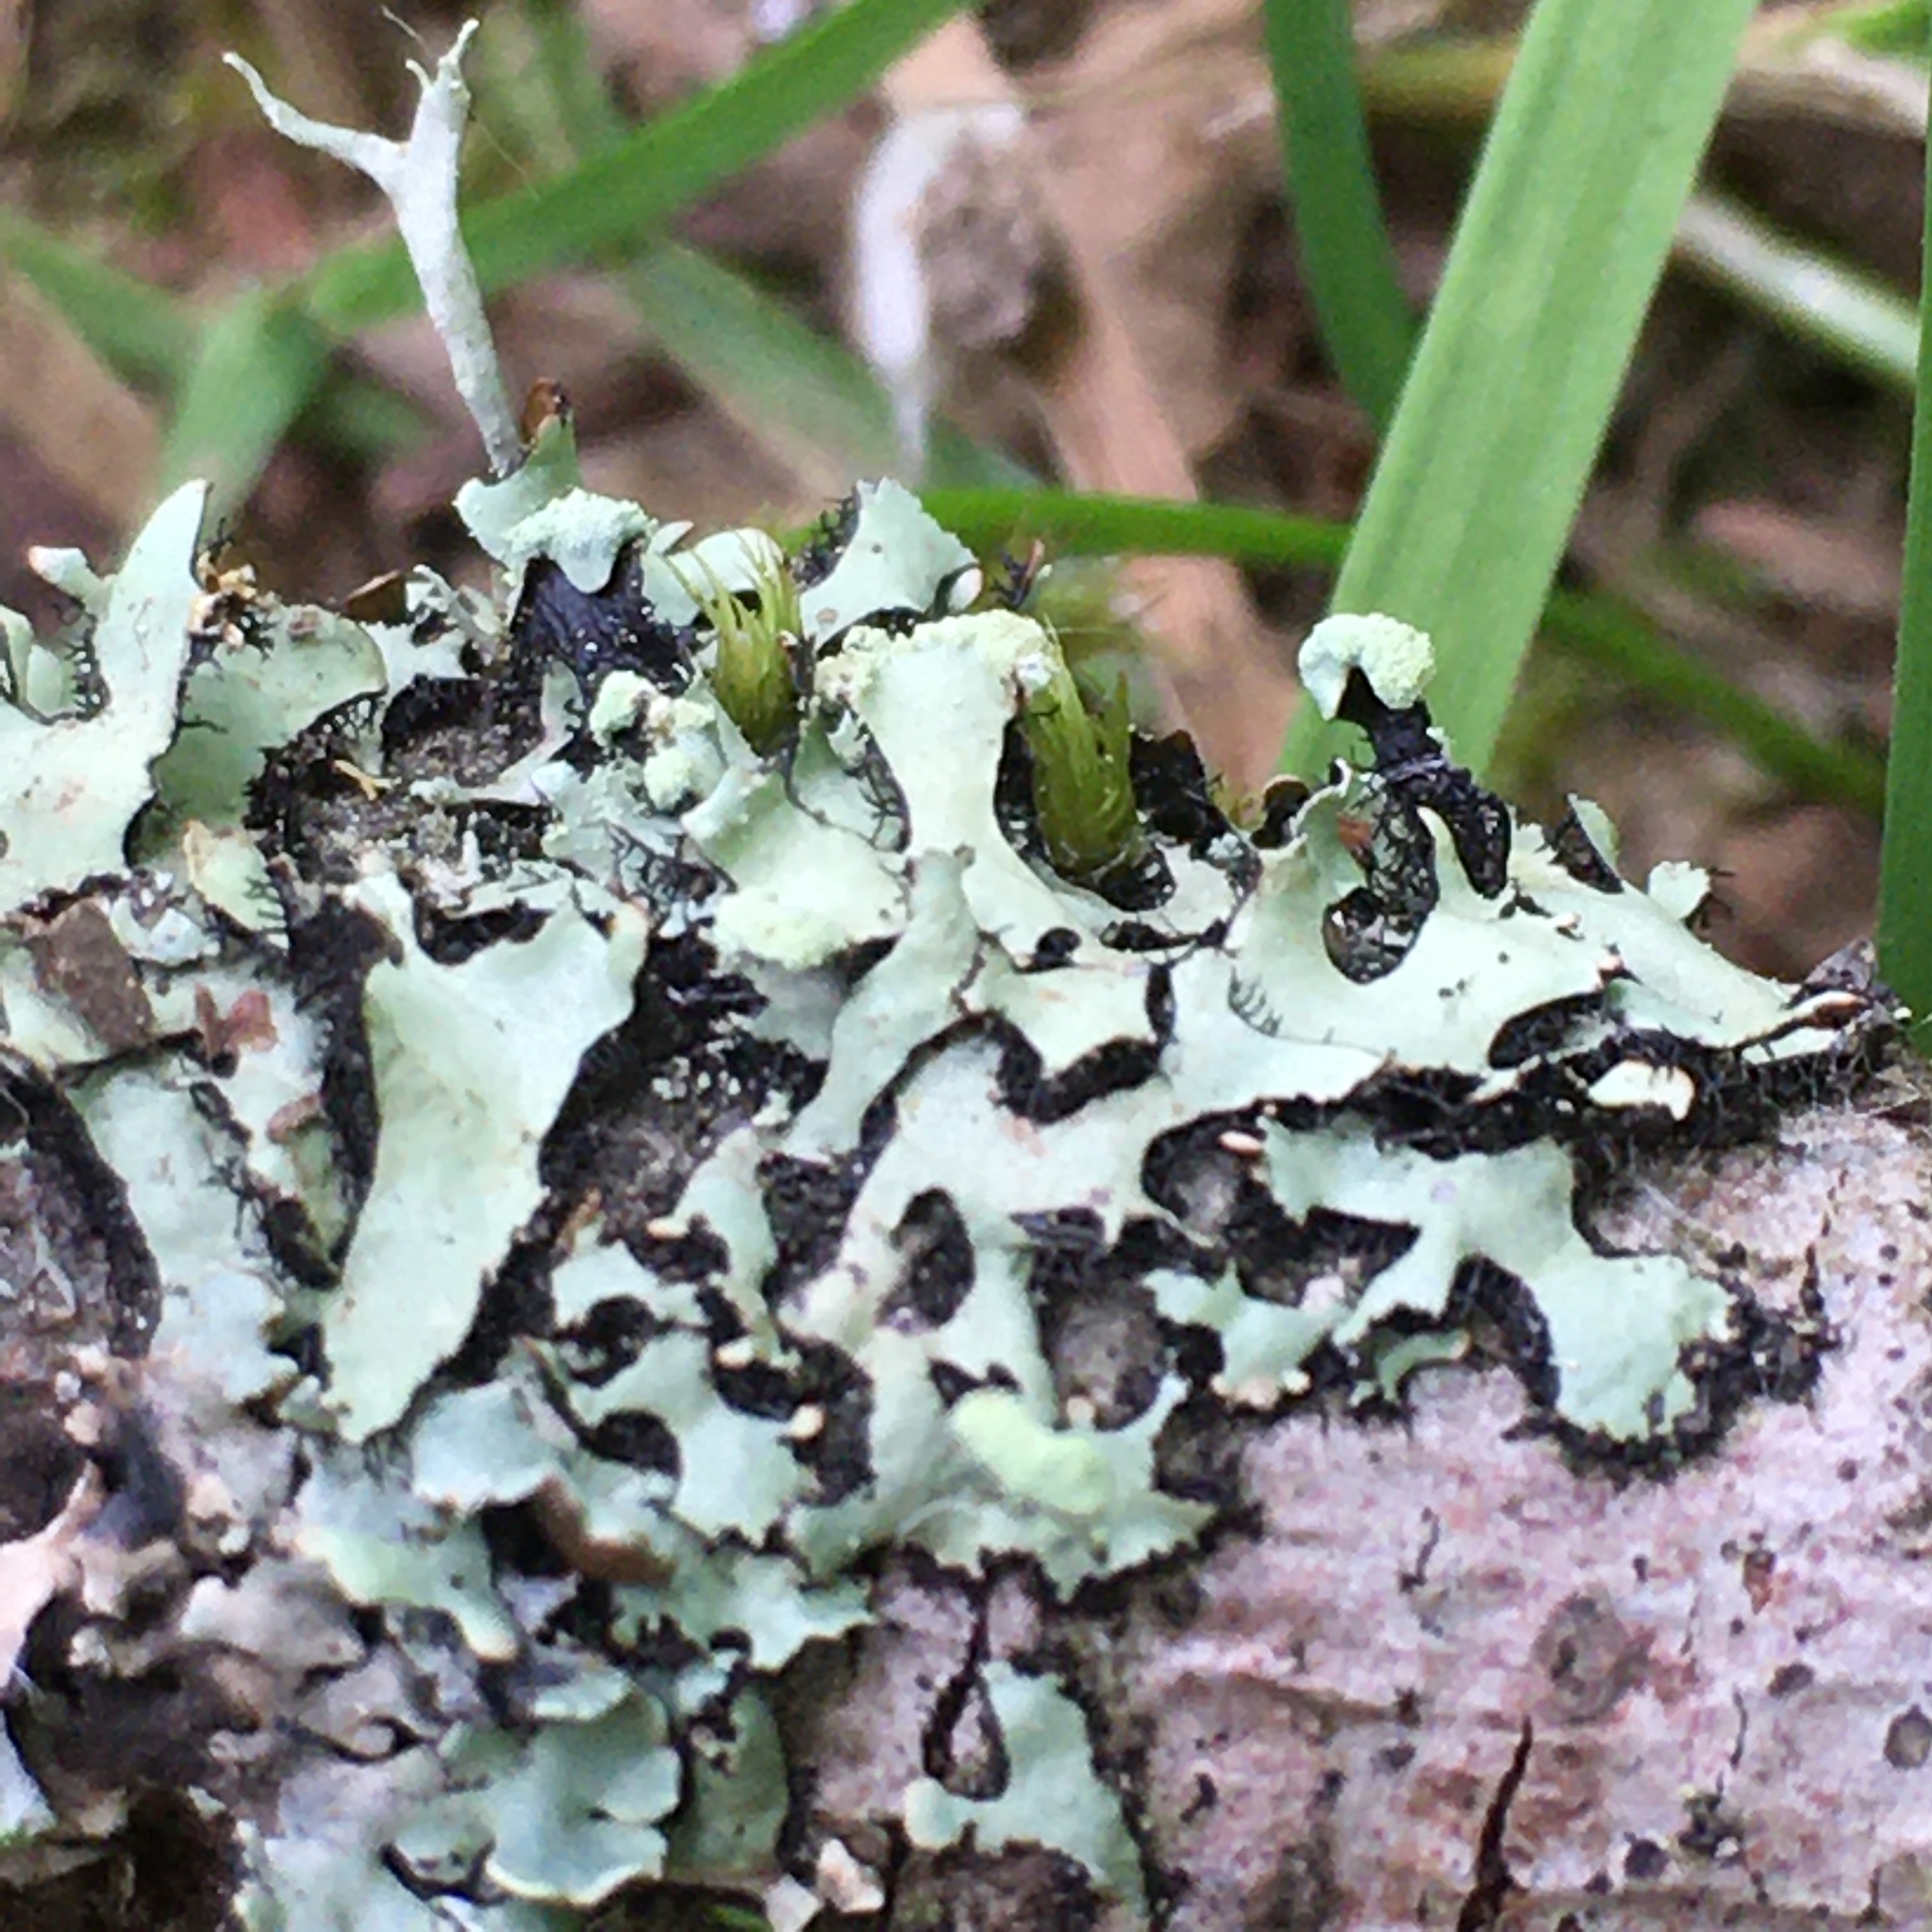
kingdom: Fungi
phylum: Ascomycota
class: Lecanoromycetes
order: Lecanorales
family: Parmeliaceae
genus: Hypotrachyna
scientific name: Hypotrachyna sinuosa
